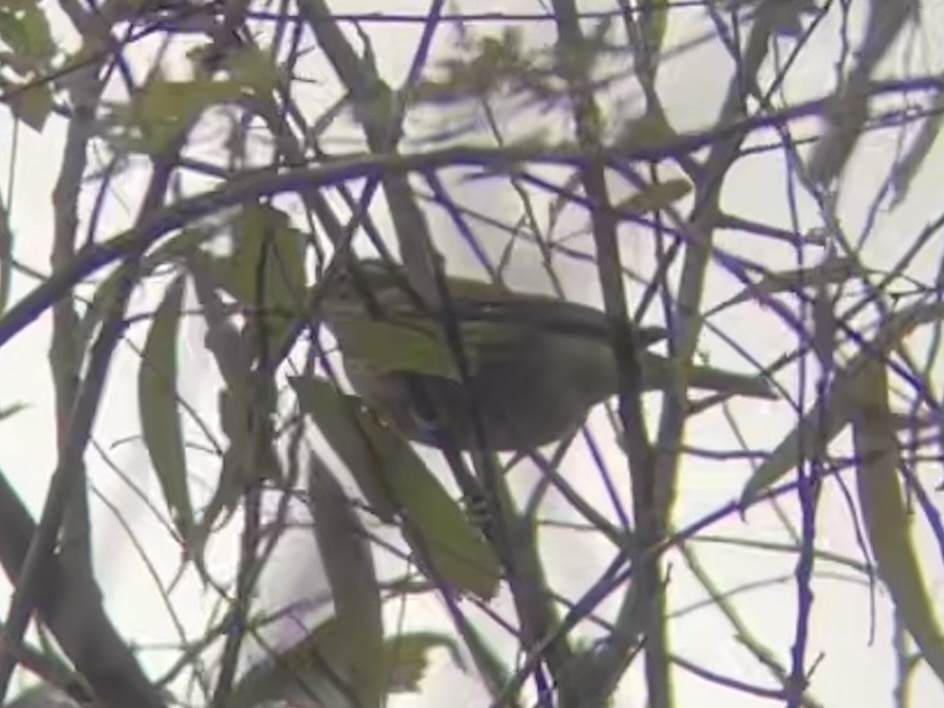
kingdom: Animalia
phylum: Chordata
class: Aves
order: Passeriformes
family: Cardinalidae
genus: Pheucticus
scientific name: Pheucticus ludovicianus
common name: Rose-breasted grosbeak
